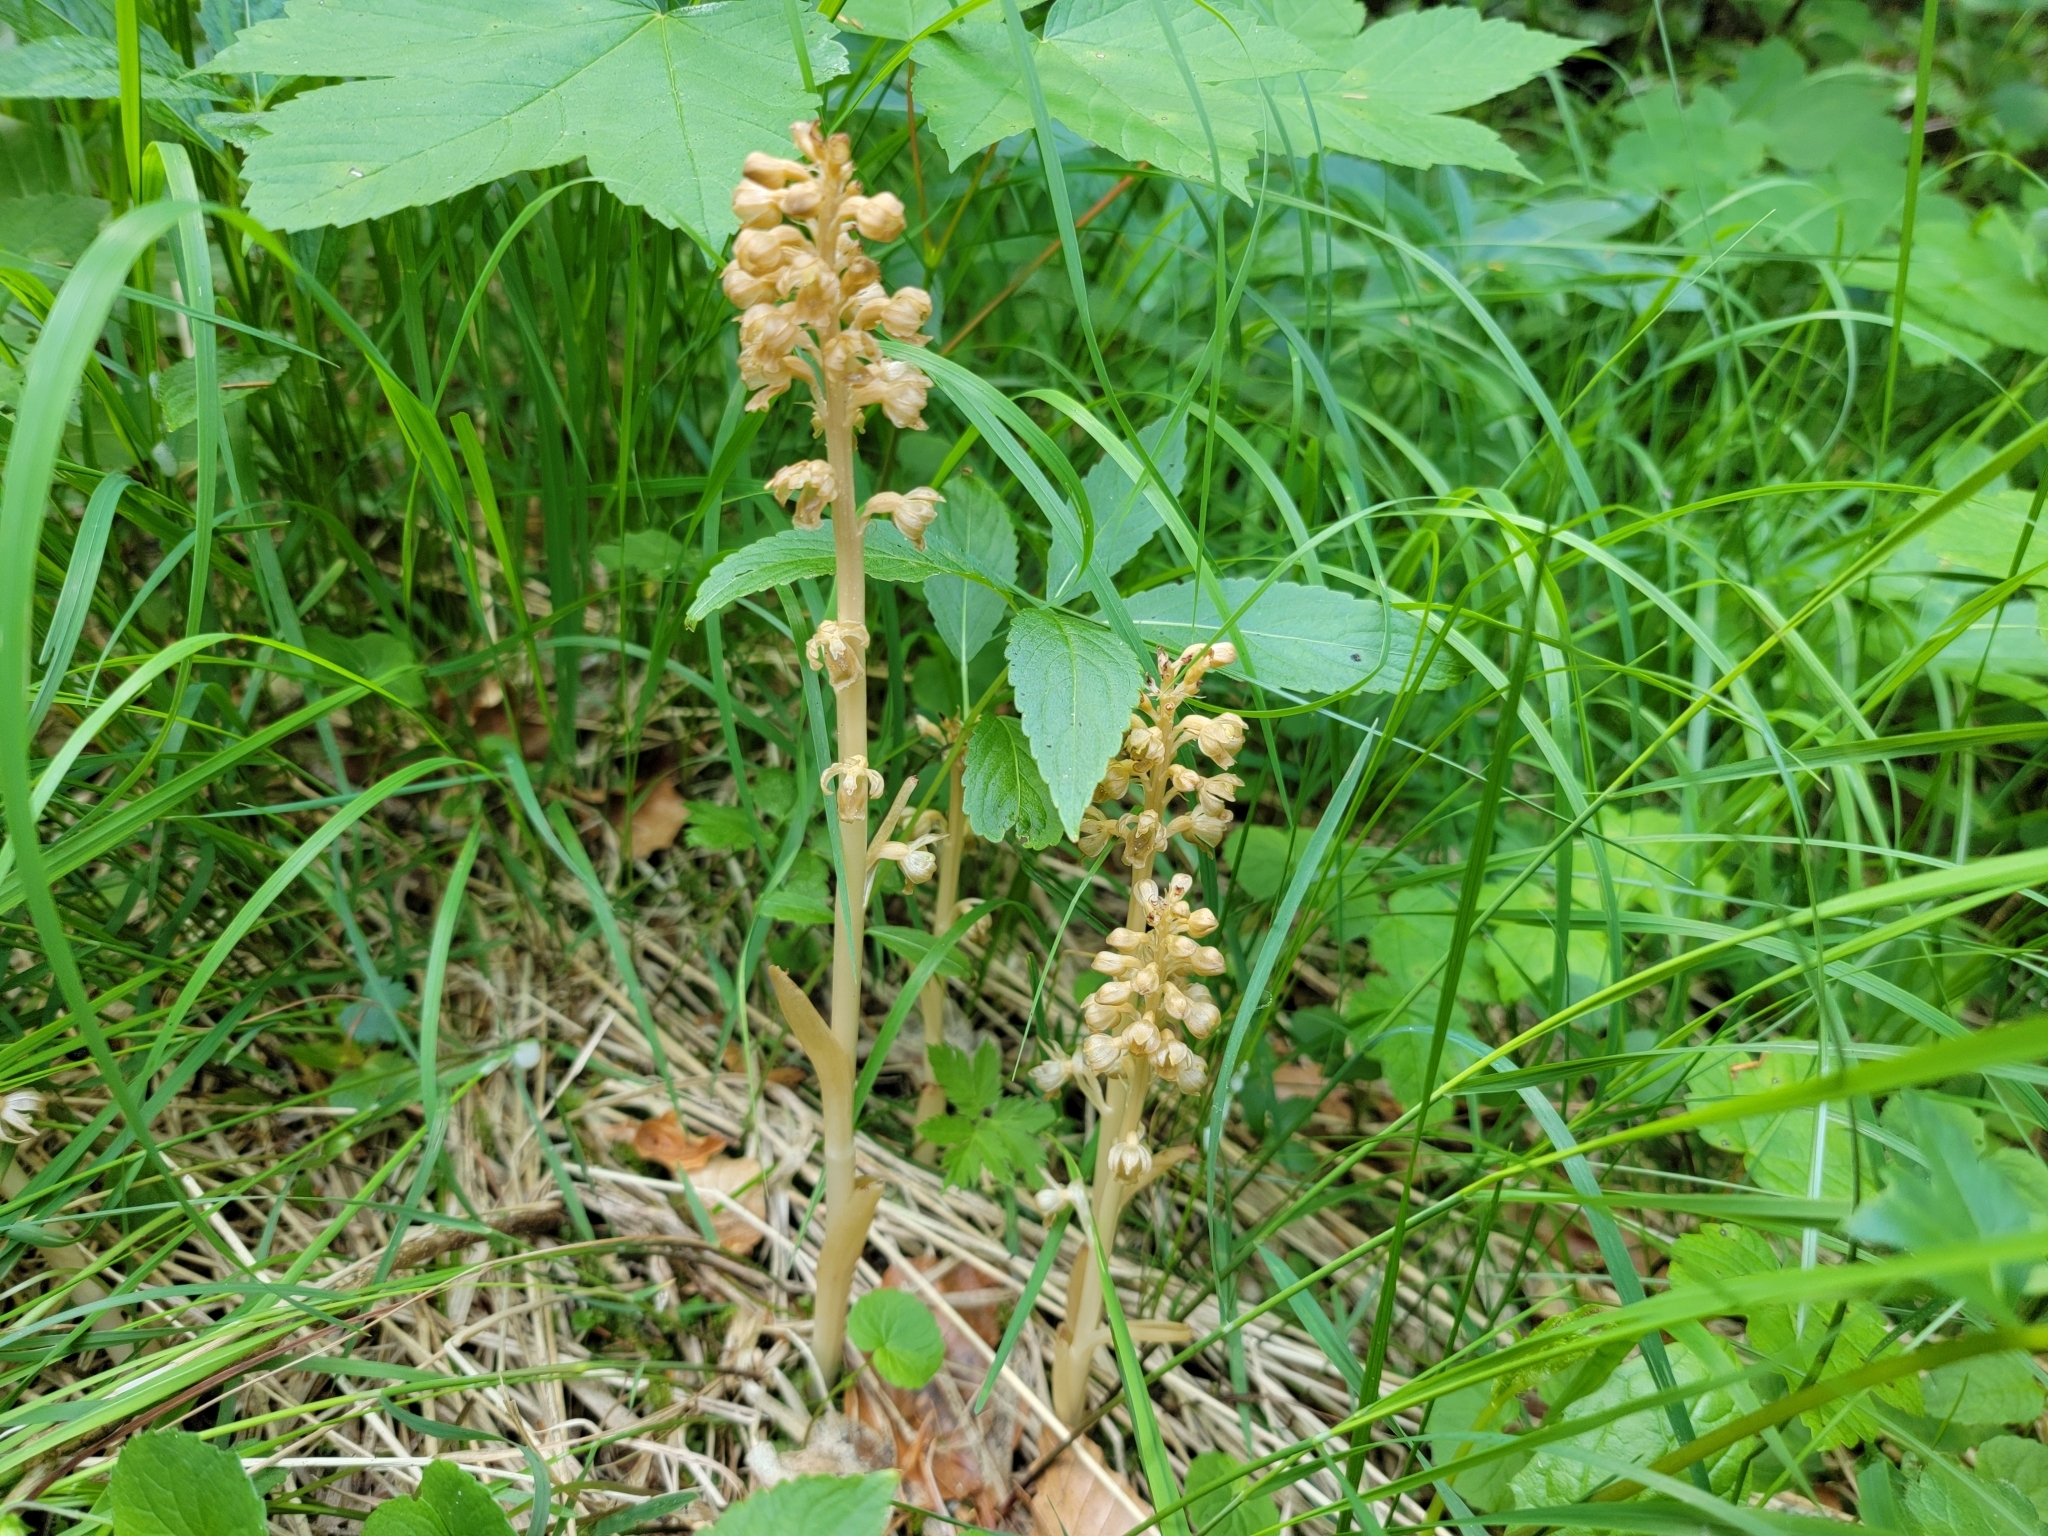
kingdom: Plantae
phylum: Tracheophyta
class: Liliopsida
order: Asparagales
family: Orchidaceae
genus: Neottia
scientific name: Neottia nidus-avis
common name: Bird's-nest orchid
